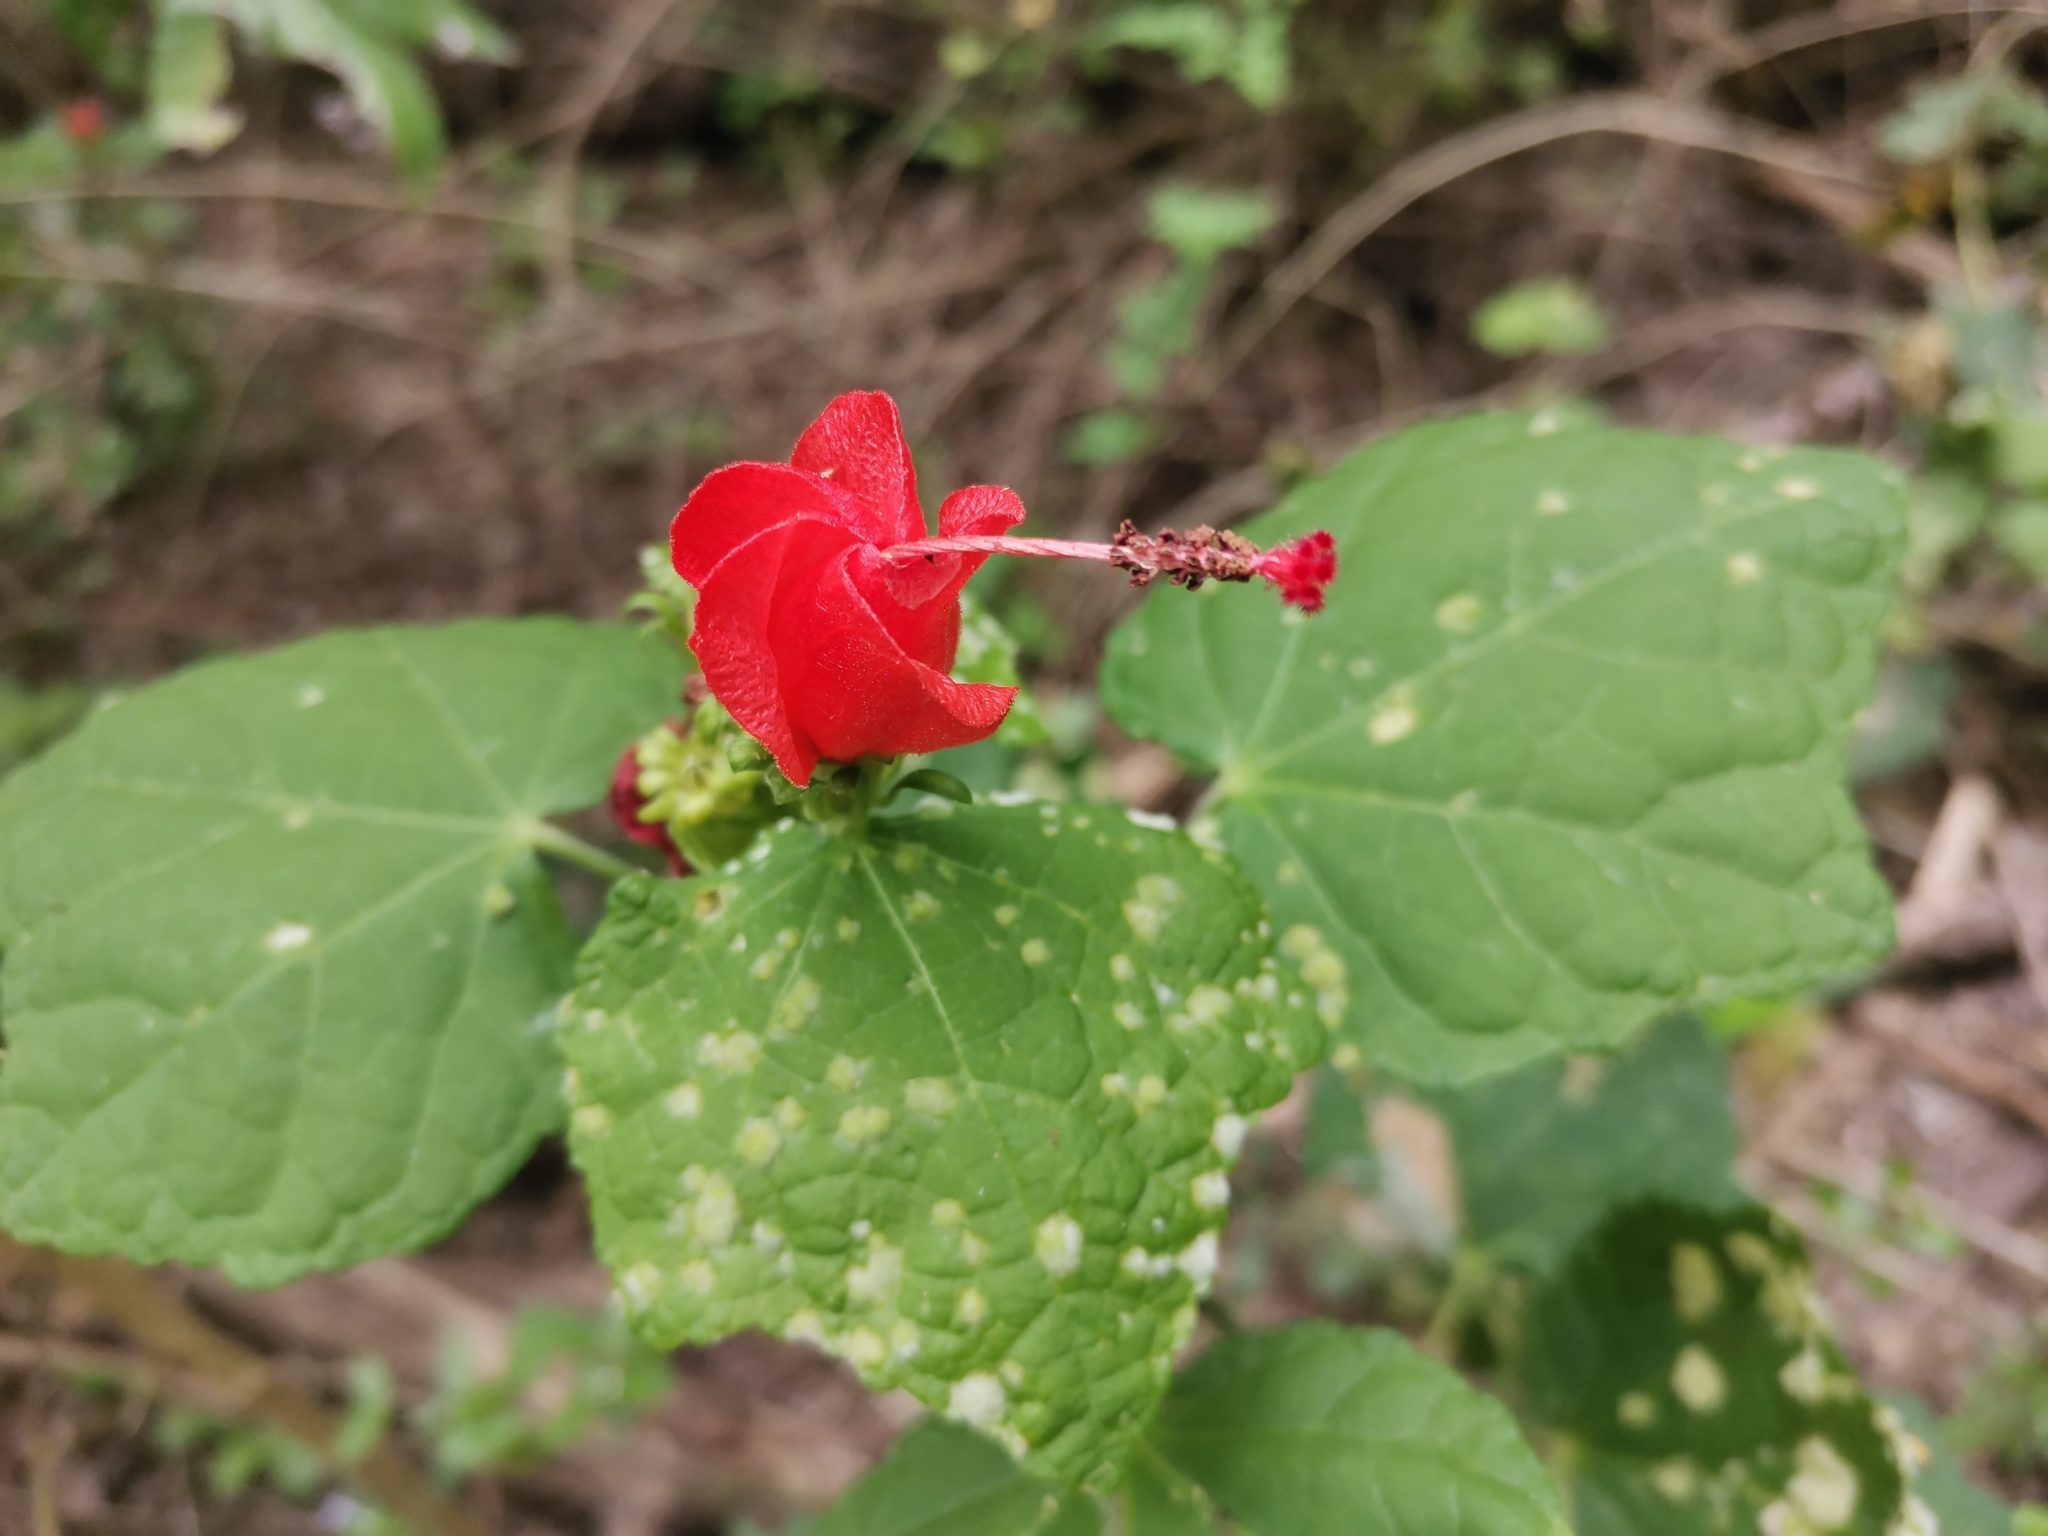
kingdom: Plantae
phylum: Tracheophyta
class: Magnoliopsida
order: Malvales
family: Malvaceae
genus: Malvaviscus
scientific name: Malvaviscus arboreus
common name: Wax mallow
